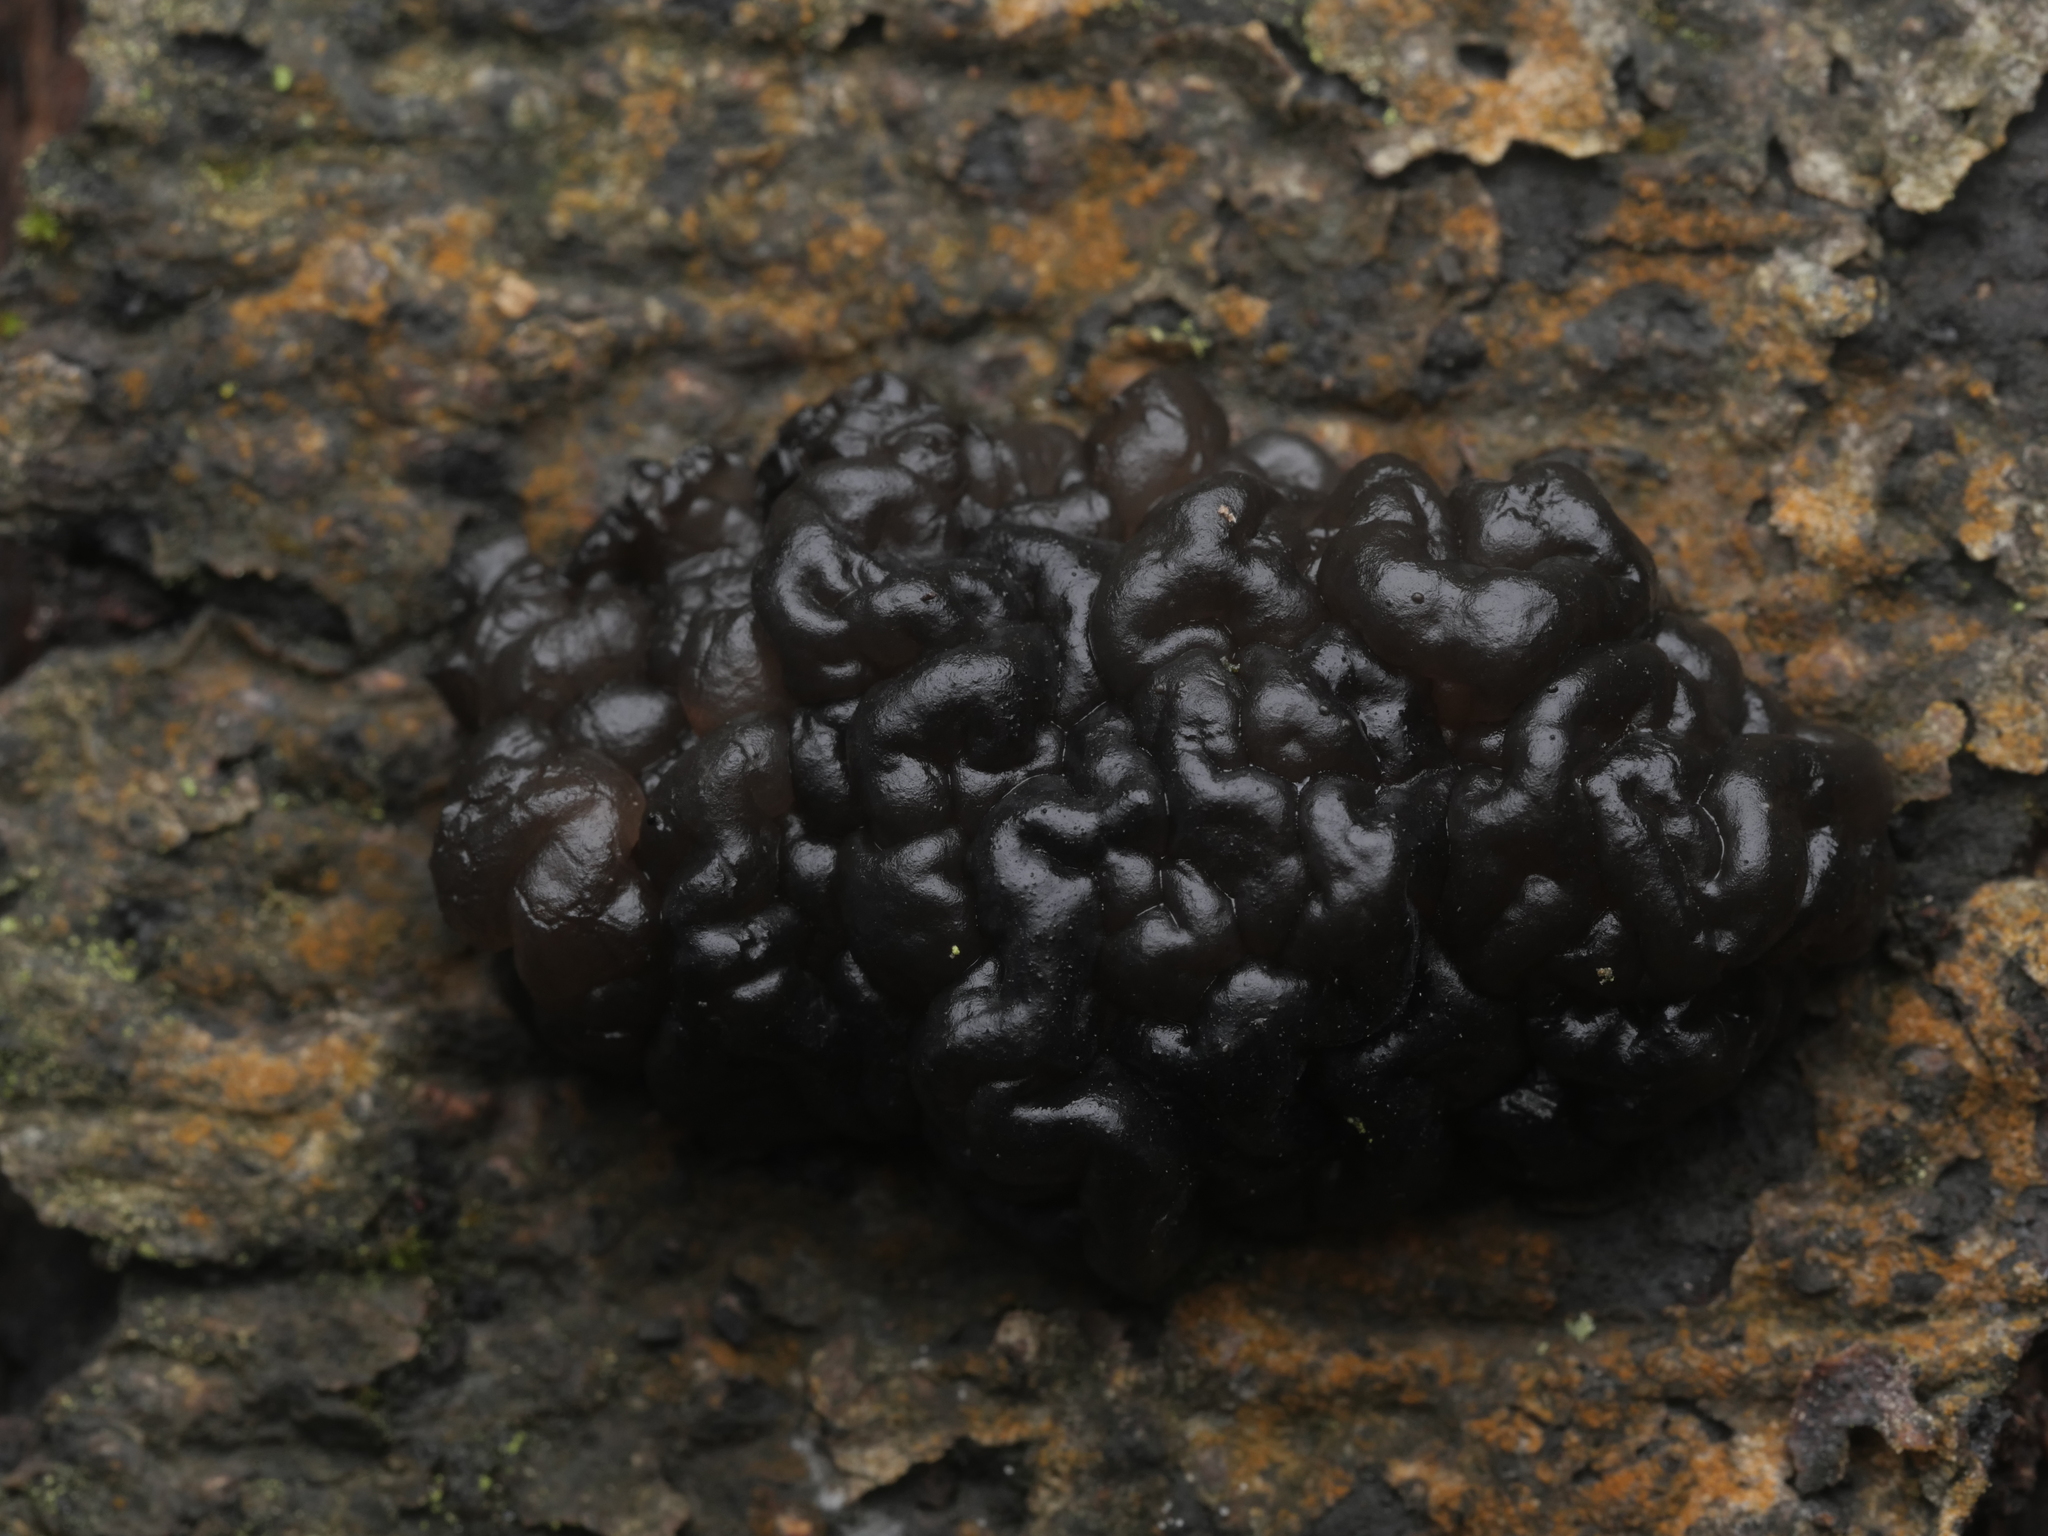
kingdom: Fungi
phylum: Basidiomycota
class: Agaricomycetes
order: Auriculariales
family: Auriculariaceae
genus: Exidia
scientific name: Exidia nigricans
